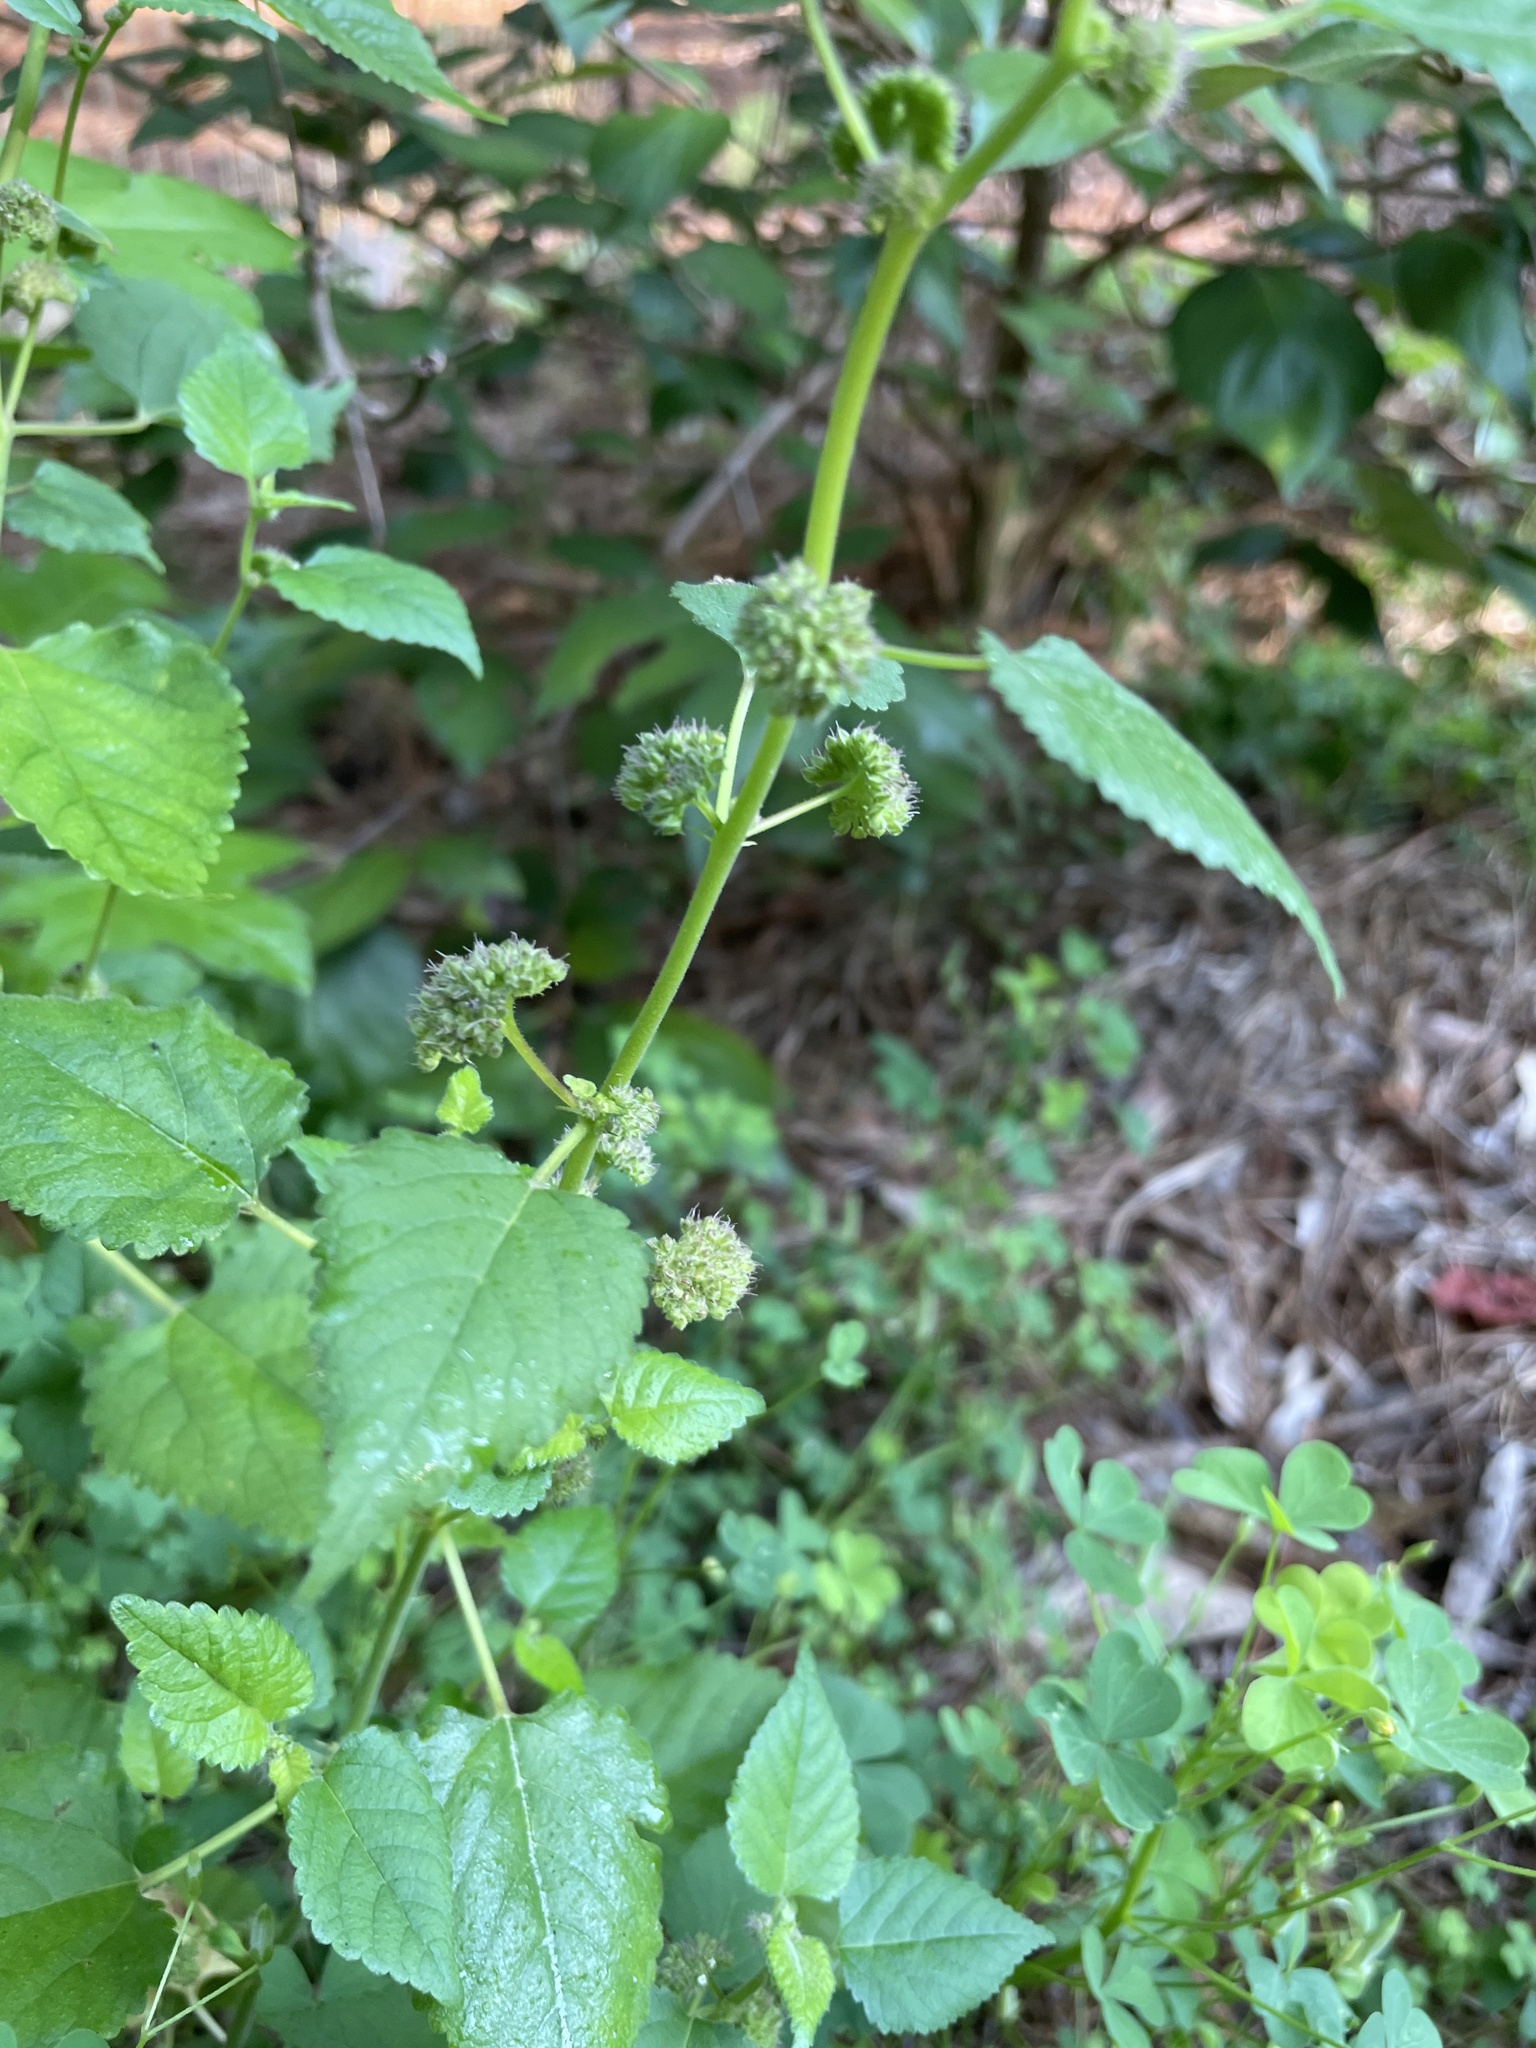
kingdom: Plantae
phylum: Tracheophyta
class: Magnoliopsida
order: Rosales
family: Moraceae
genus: Fatoua
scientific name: Fatoua villosa
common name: Hairy crabweed
